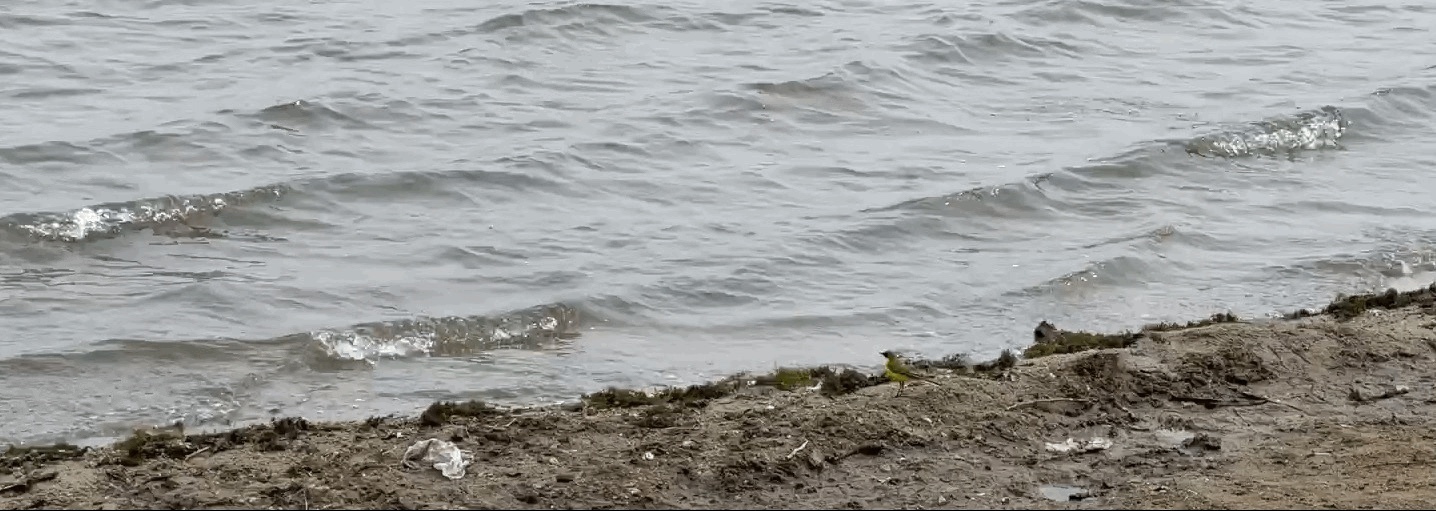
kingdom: Animalia
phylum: Chordata
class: Aves
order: Passeriformes
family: Motacillidae
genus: Motacilla
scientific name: Motacilla flava
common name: Western yellow wagtail
